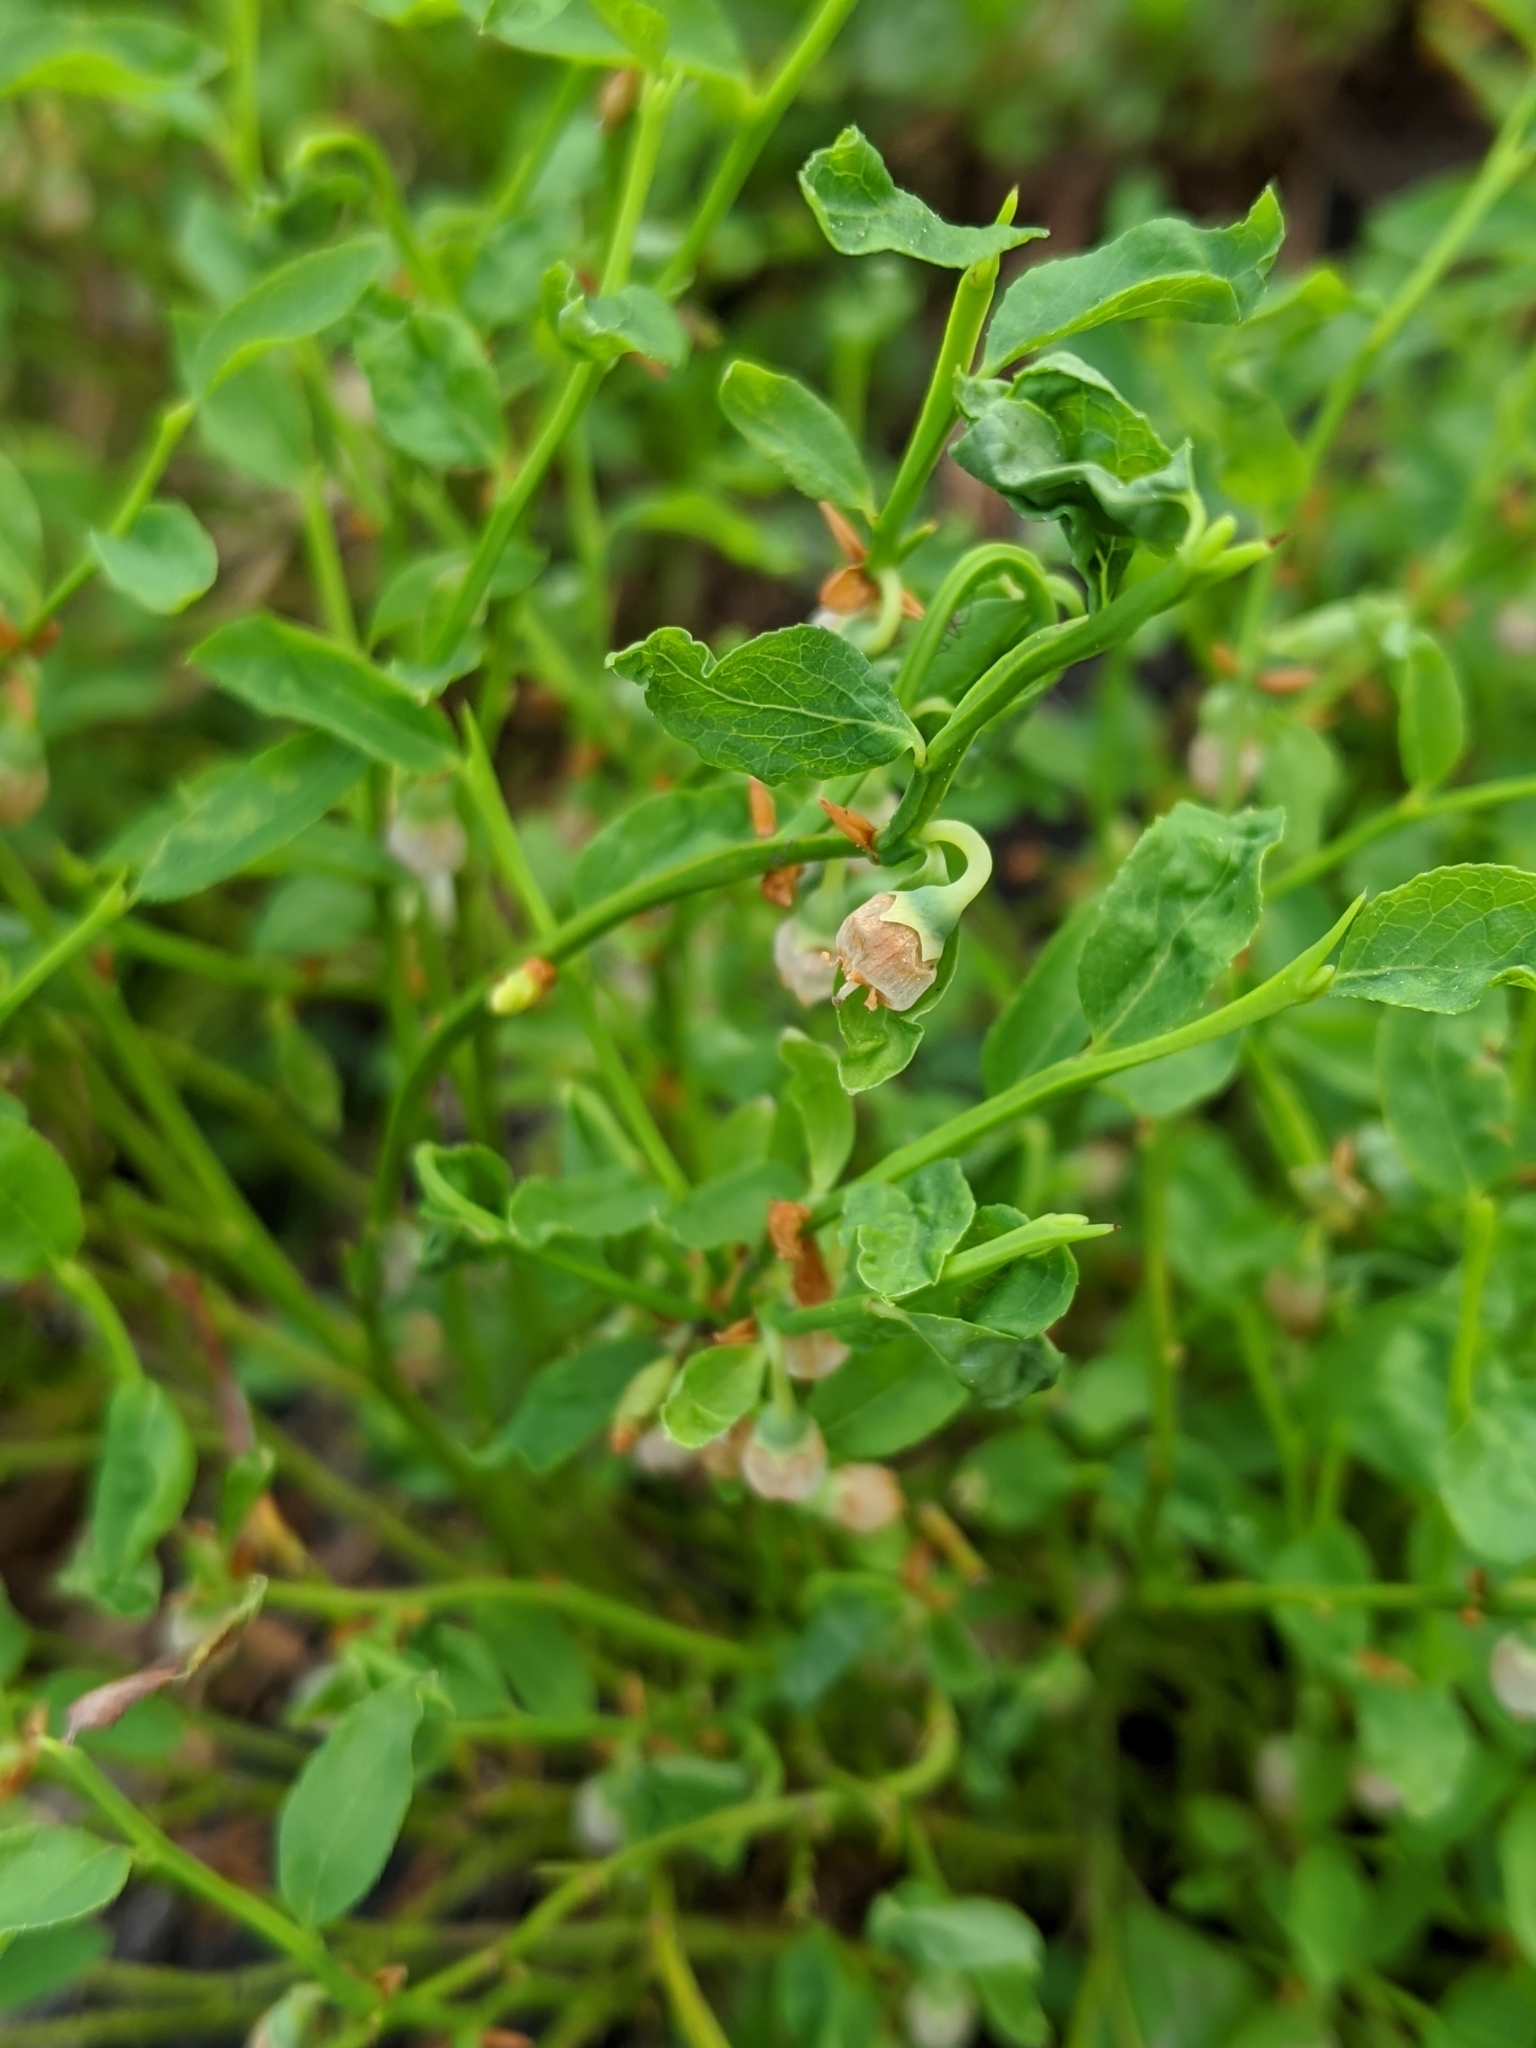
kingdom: Plantae
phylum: Tracheophyta
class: Magnoliopsida
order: Ericales
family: Ericaceae
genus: Vaccinium
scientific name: Vaccinium scoparium
